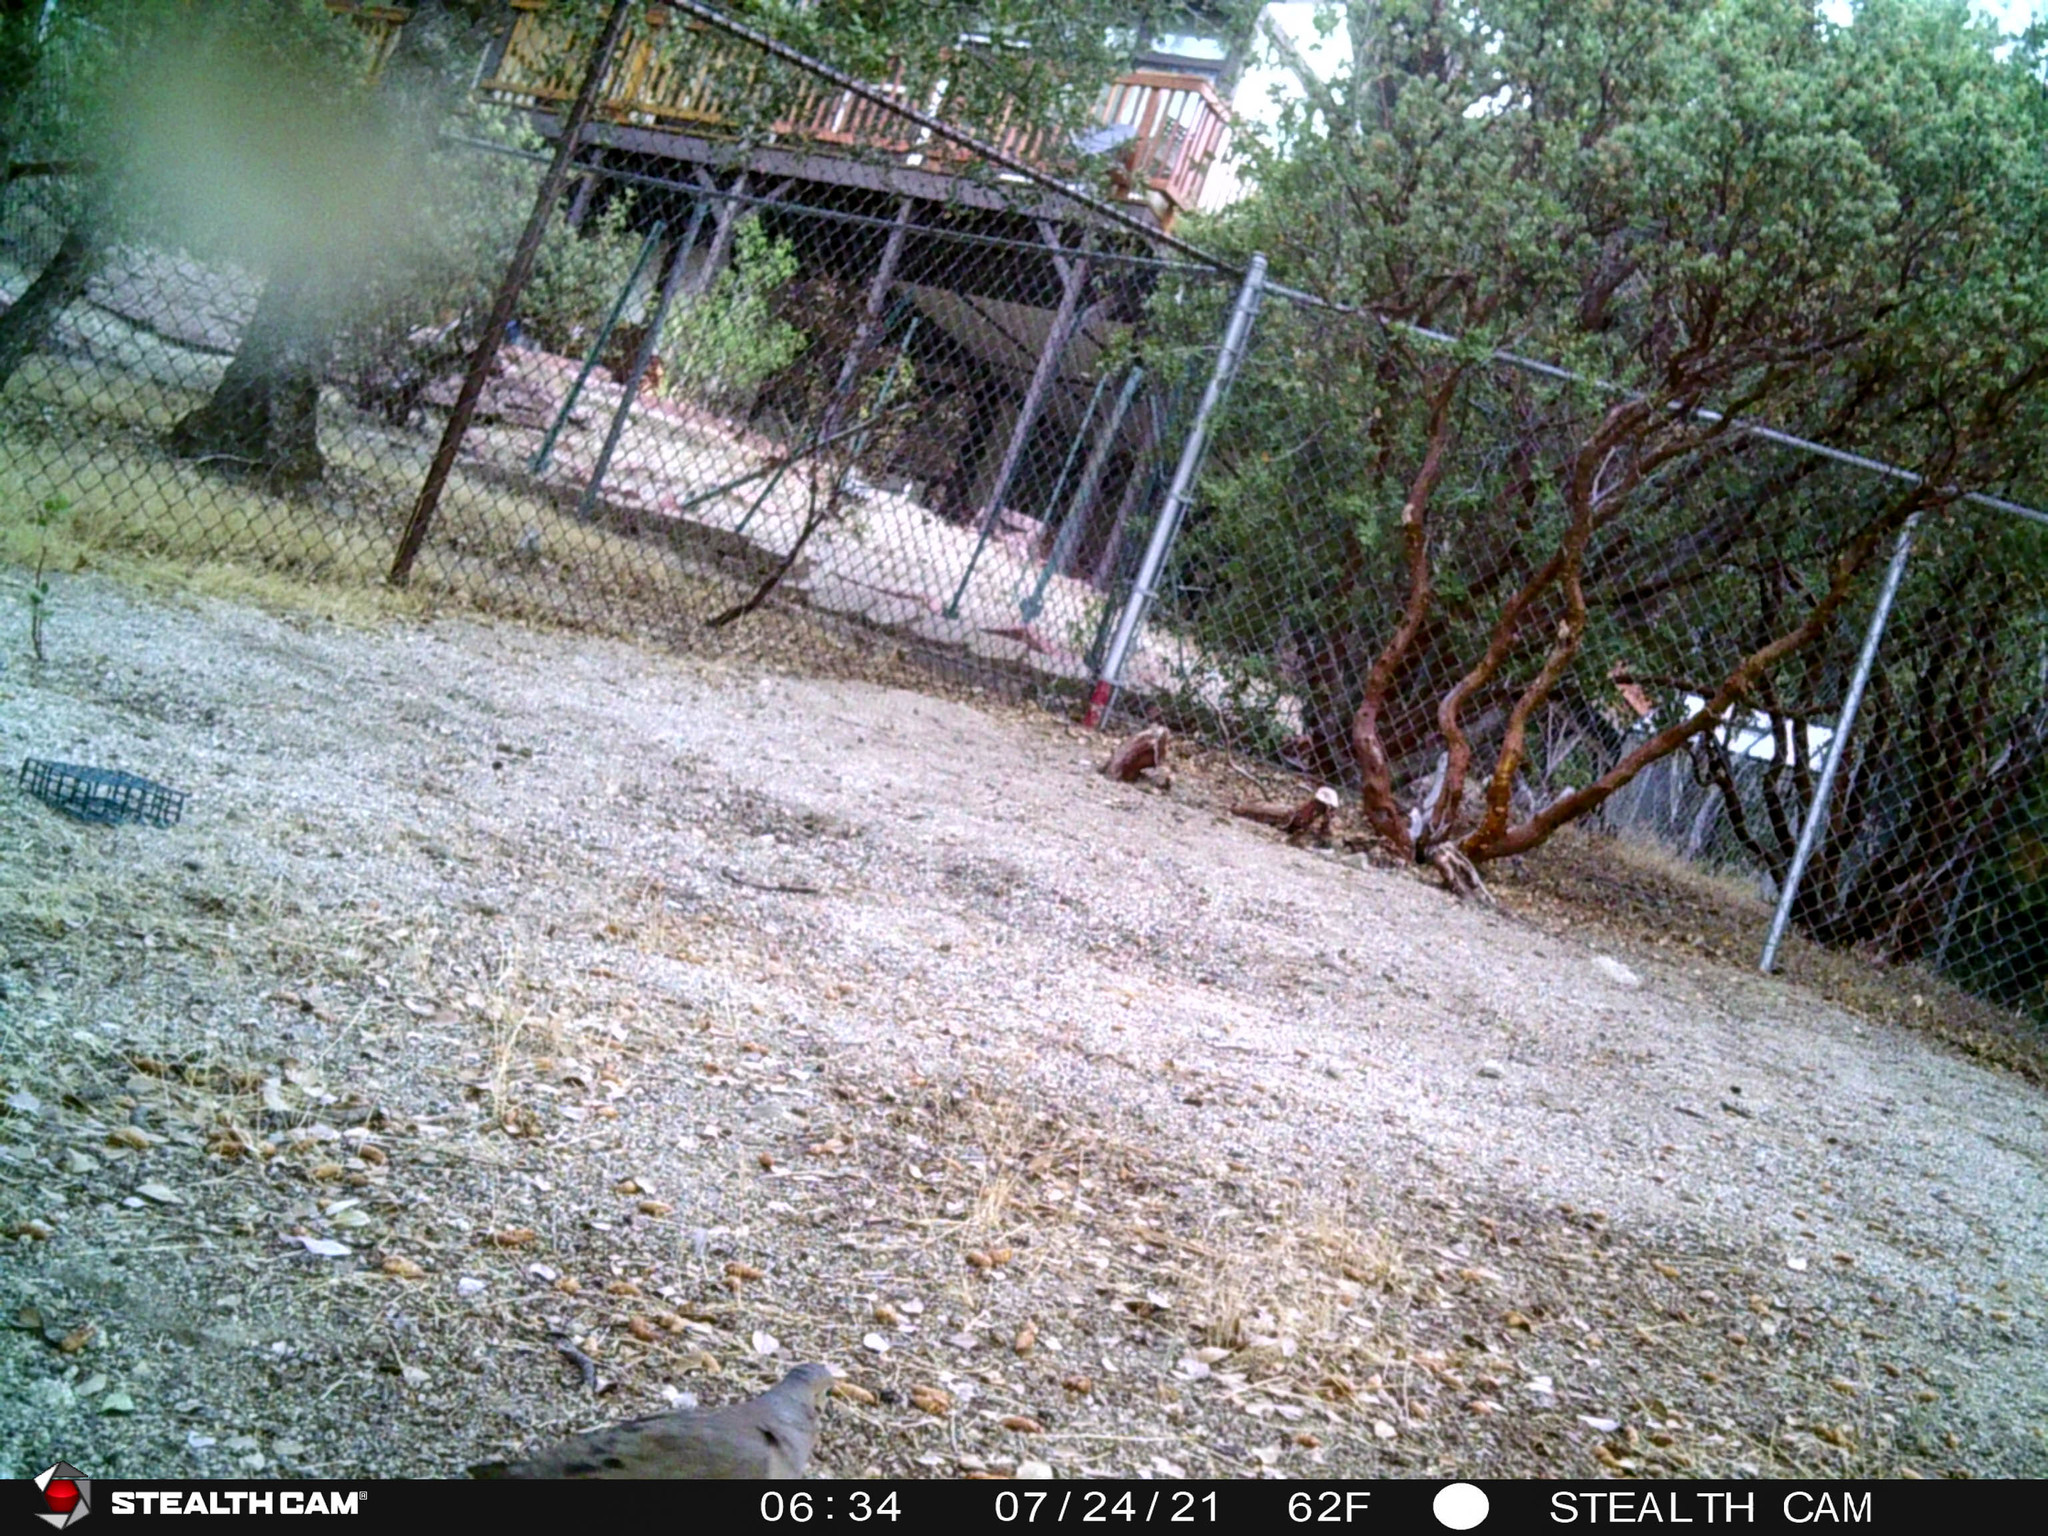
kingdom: Animalia
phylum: Chordata
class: Aves
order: Columbiformes
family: Columbidae
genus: Zenaida
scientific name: Zenaida macroura
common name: Mourning dove
